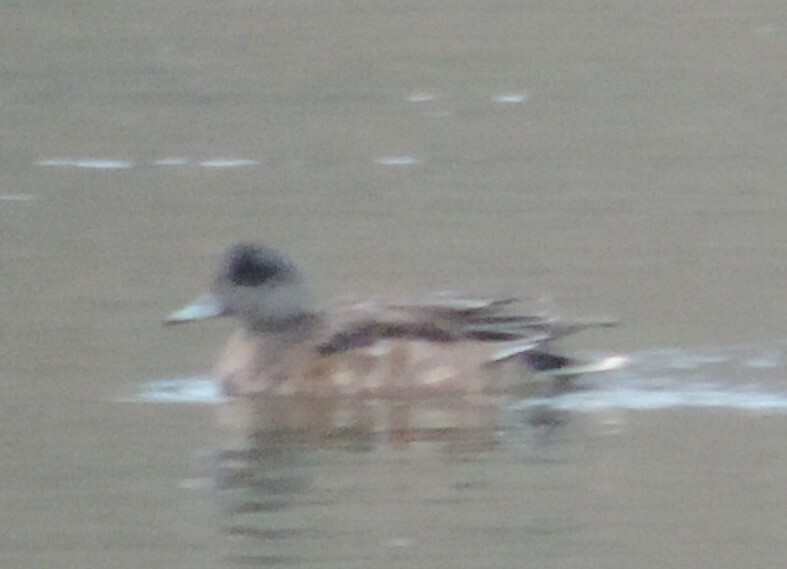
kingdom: Animalia
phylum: Chordata
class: Aves
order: Anseriformes
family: Anatidae
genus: Mareca
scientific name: Mareca americana
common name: American wigeon
